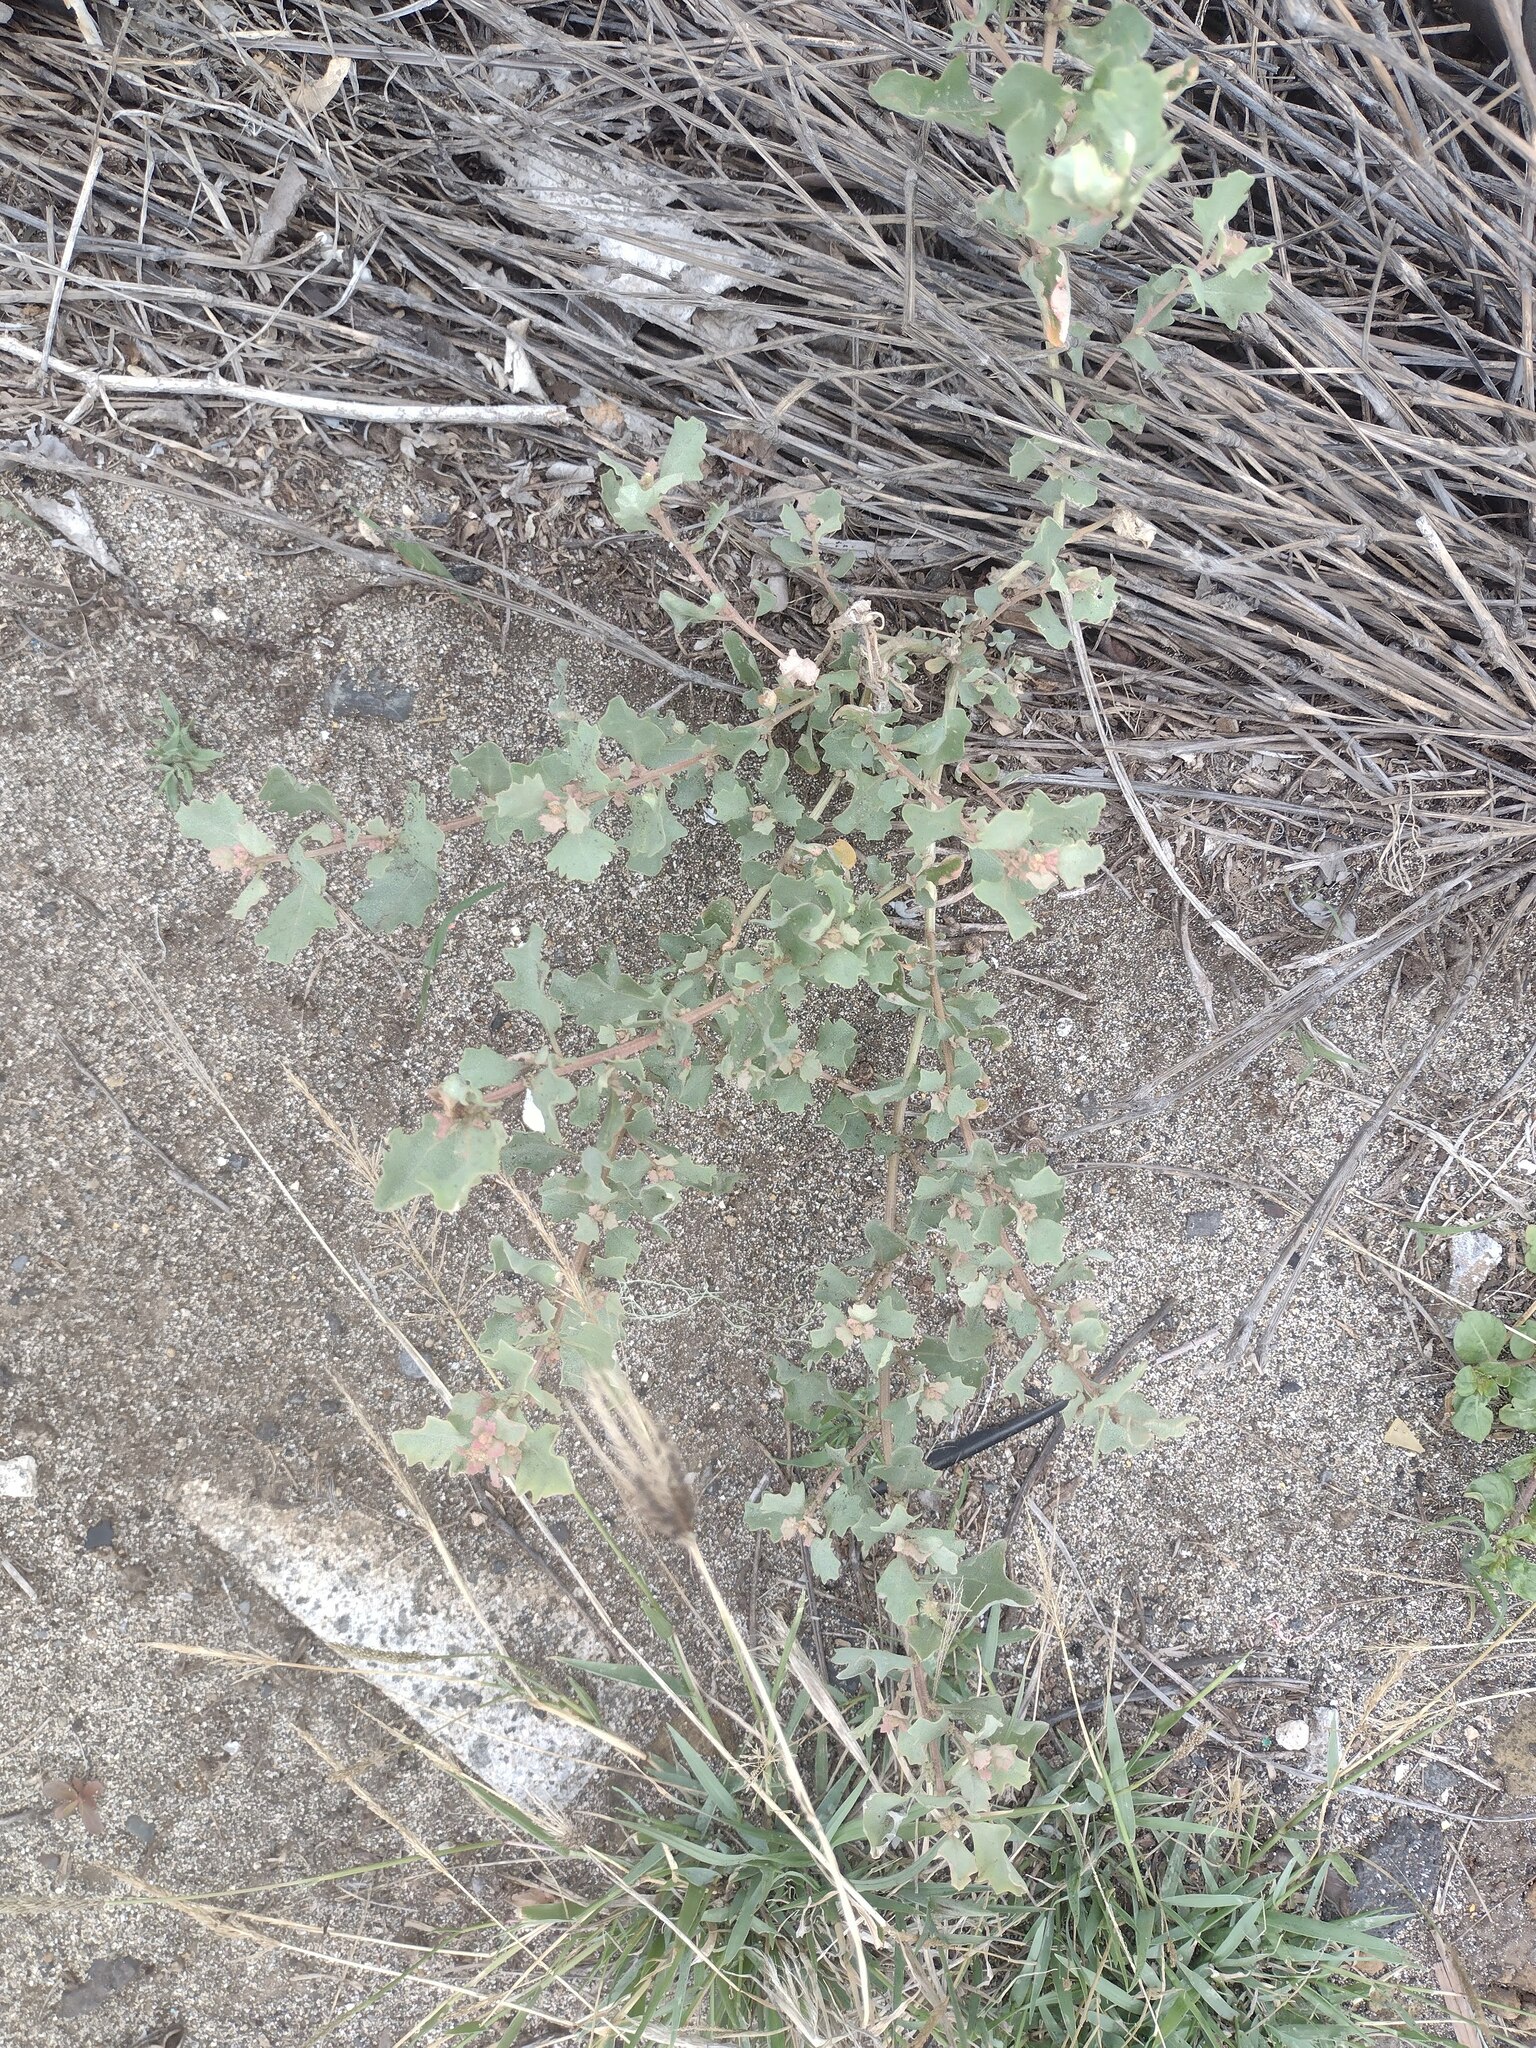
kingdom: Plantae
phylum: Tracheophyta
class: Magnoliopsida
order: Caryophyllales
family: Amaranthaceae
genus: Atriplex
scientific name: Atriplex muelleri
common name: Mueller's saltbush
